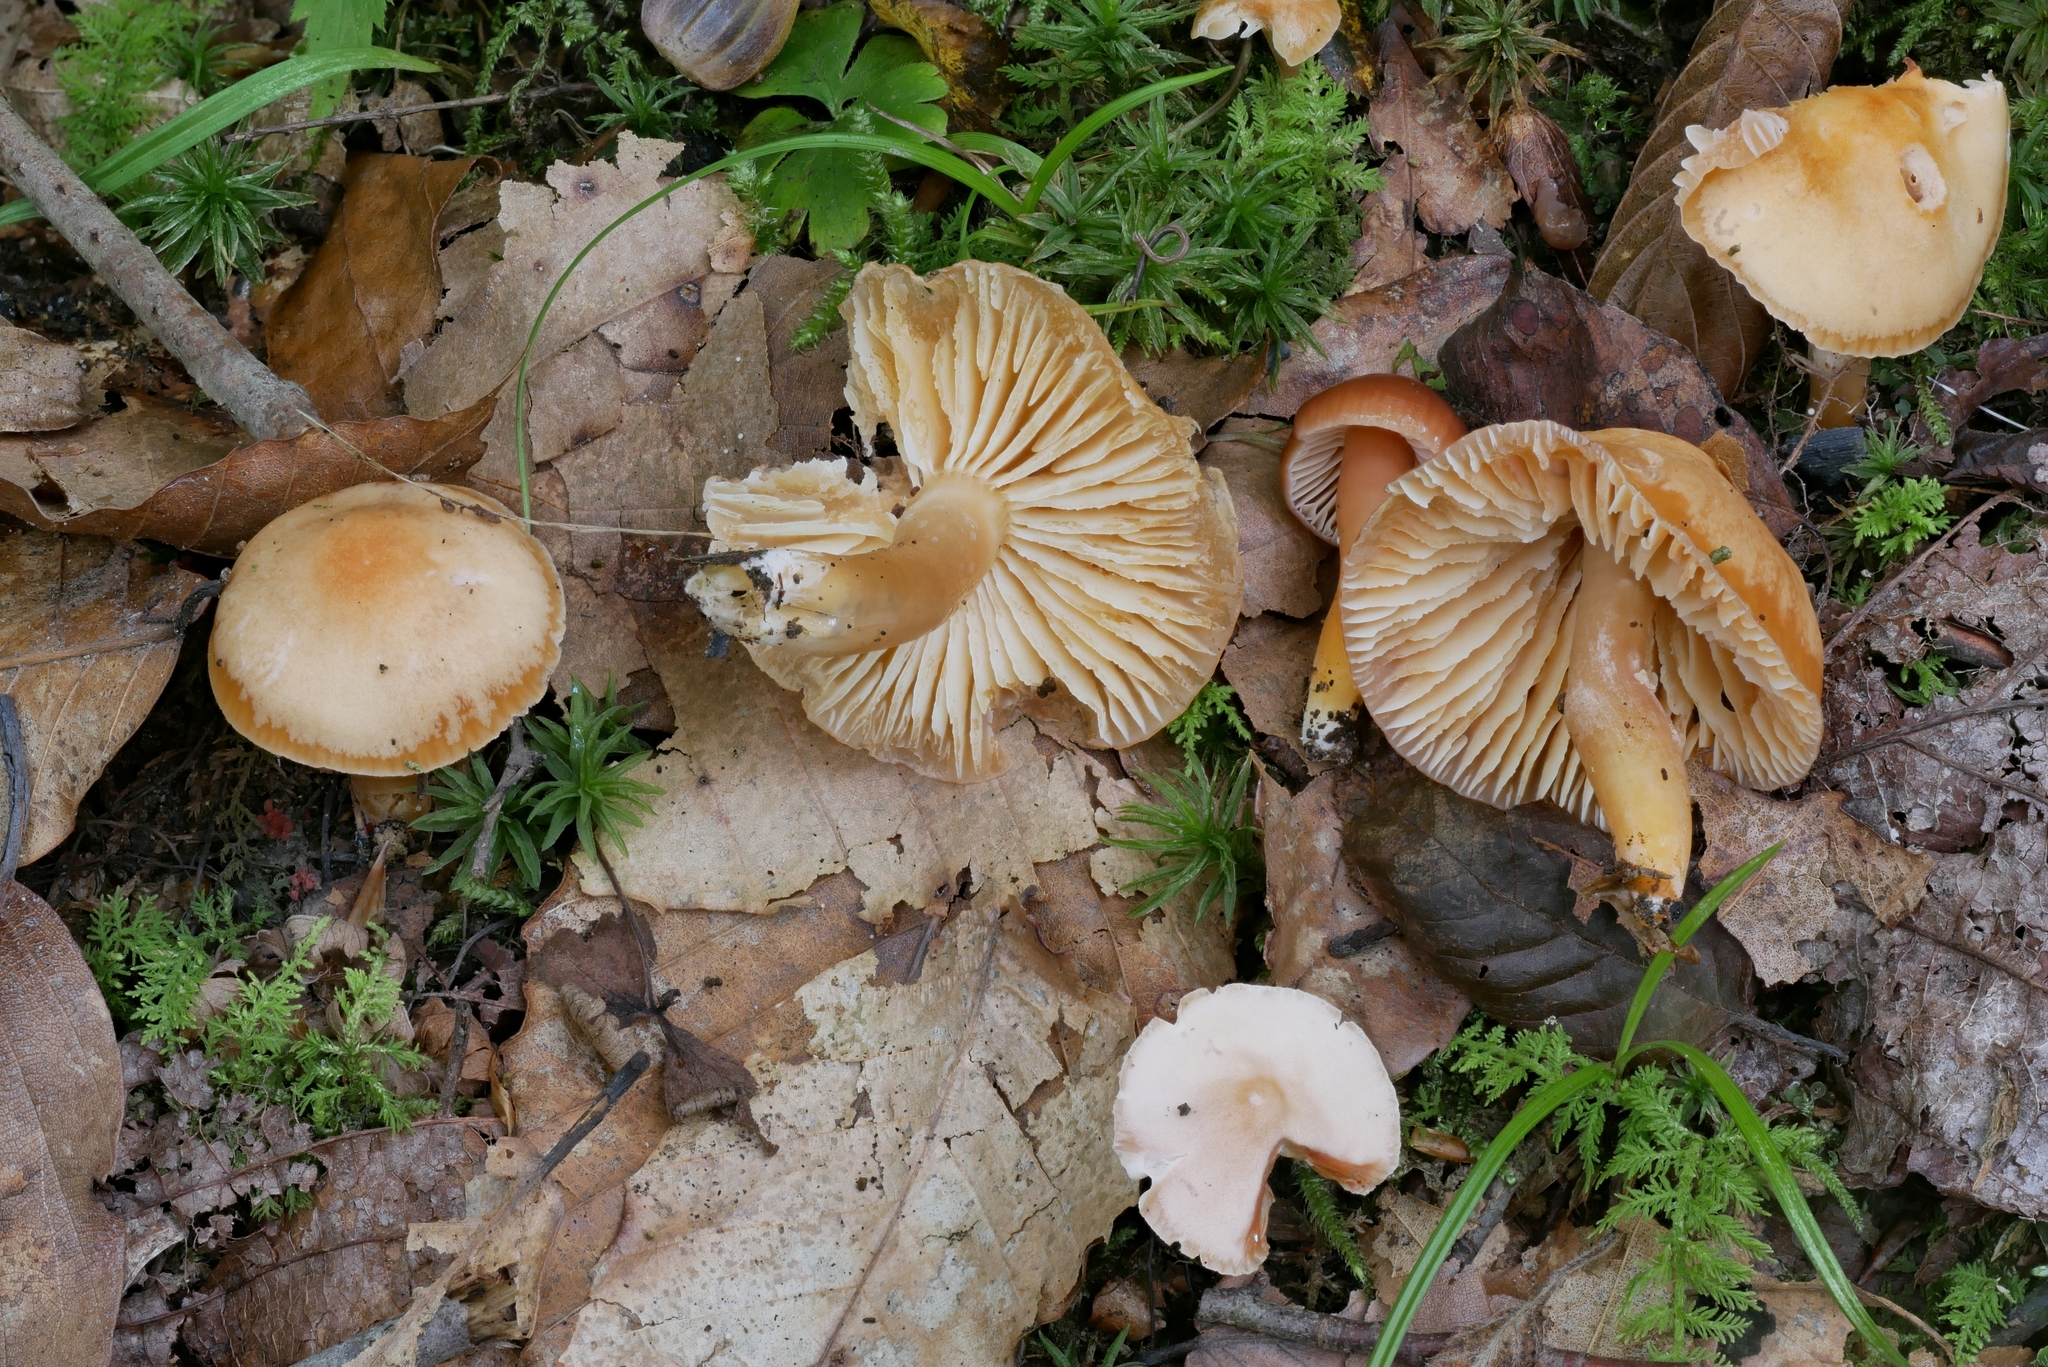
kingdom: Fungi
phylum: Basidiomycota
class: Agaricomycetes
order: Agaricales
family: Hygrophoraceae
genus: Gliophorus
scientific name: Gliophorus europerplexus
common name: Butterscotch waxcap
